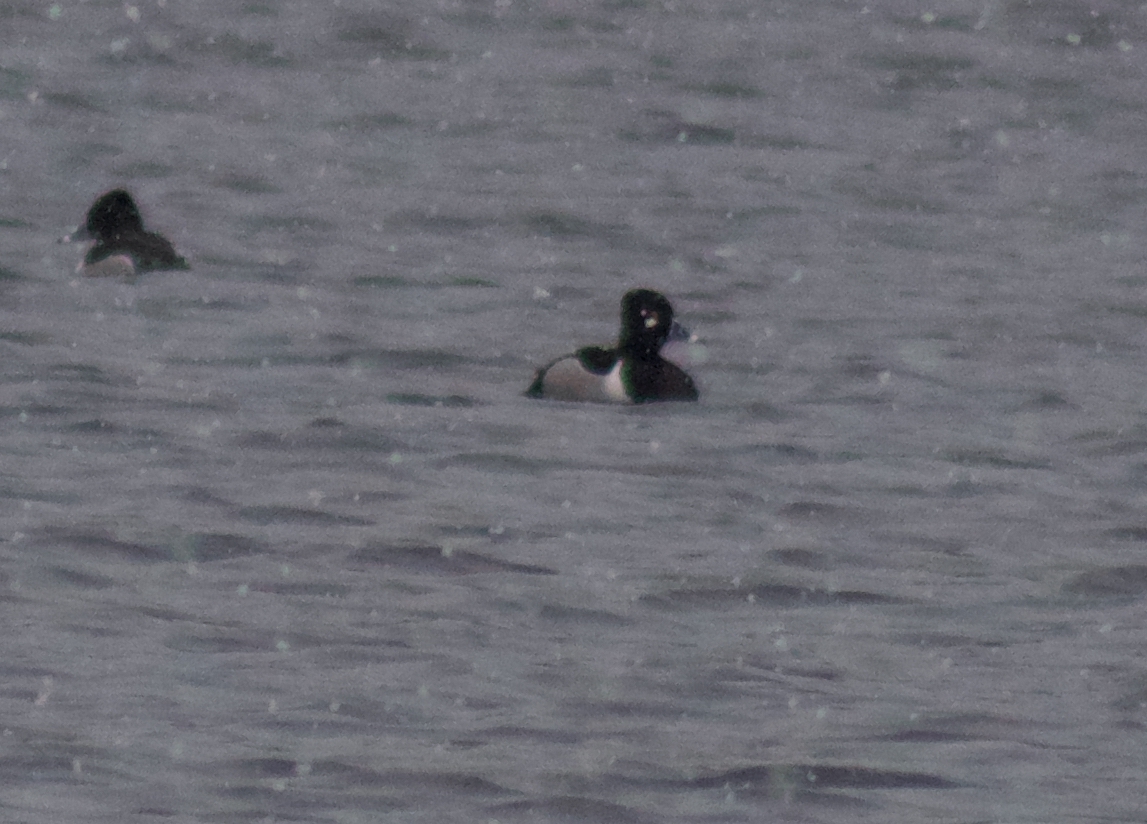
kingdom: Animalia
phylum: Chordata
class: Aves
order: Anseriformes
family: Anatidae
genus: Aythya
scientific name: Aythya collaris
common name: Ring-necked duck
